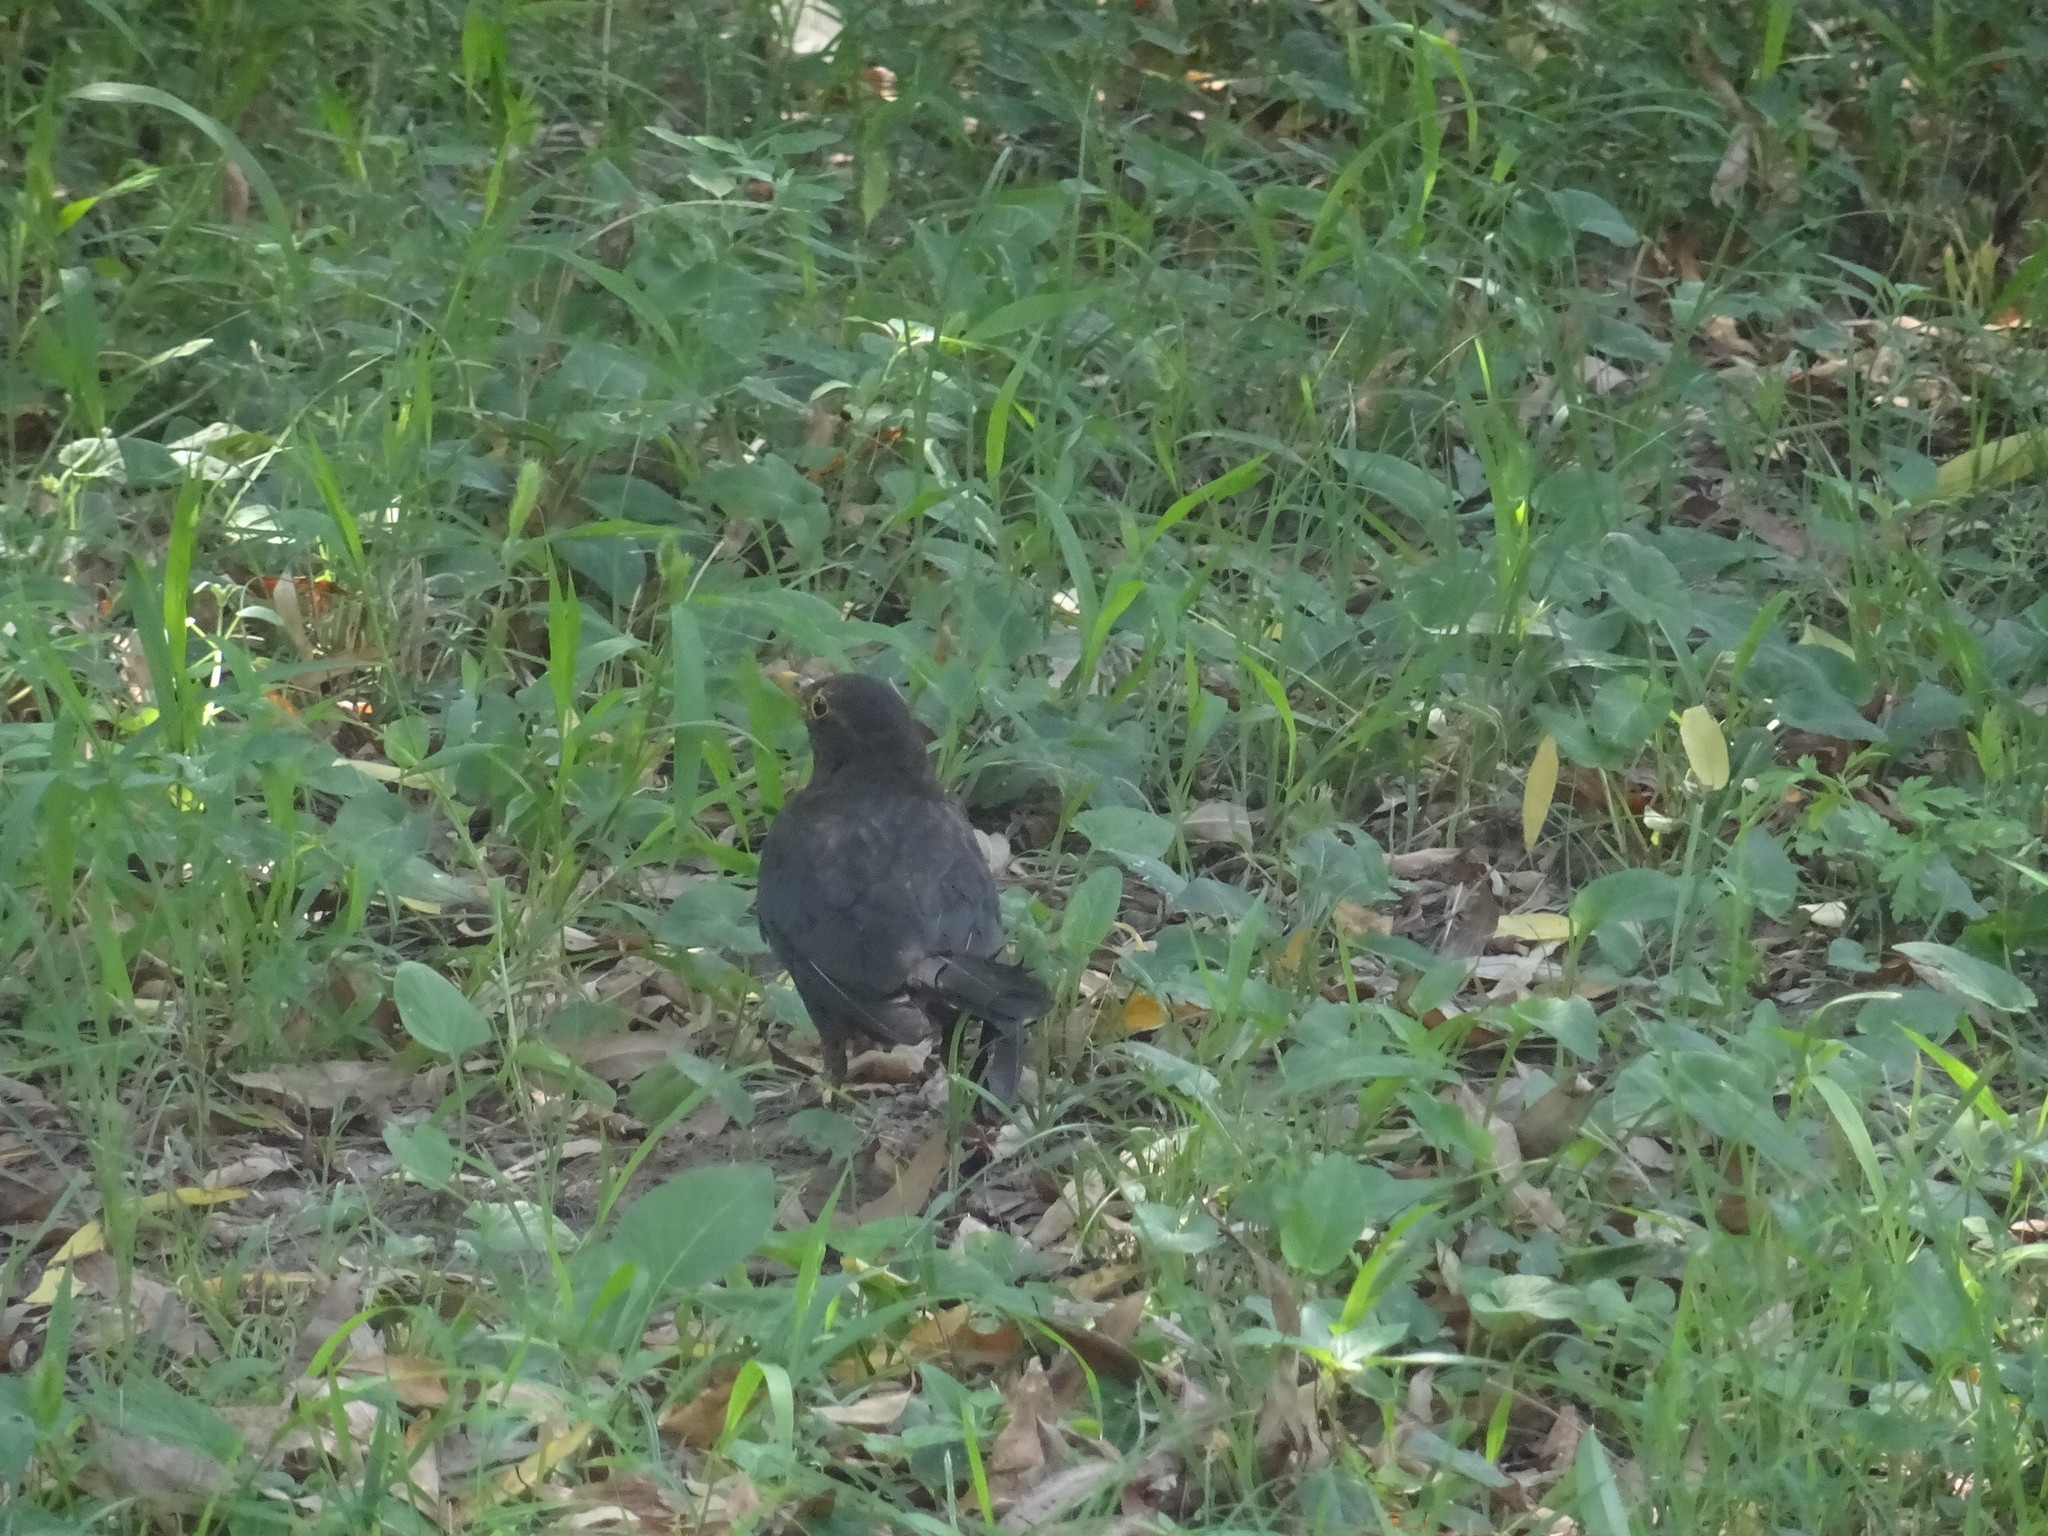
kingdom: Animalia
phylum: Chordata
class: Aves
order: Passeriformes
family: Turdidae
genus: Turdus
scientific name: Turdus mandarinus
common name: Chinese blackbird
